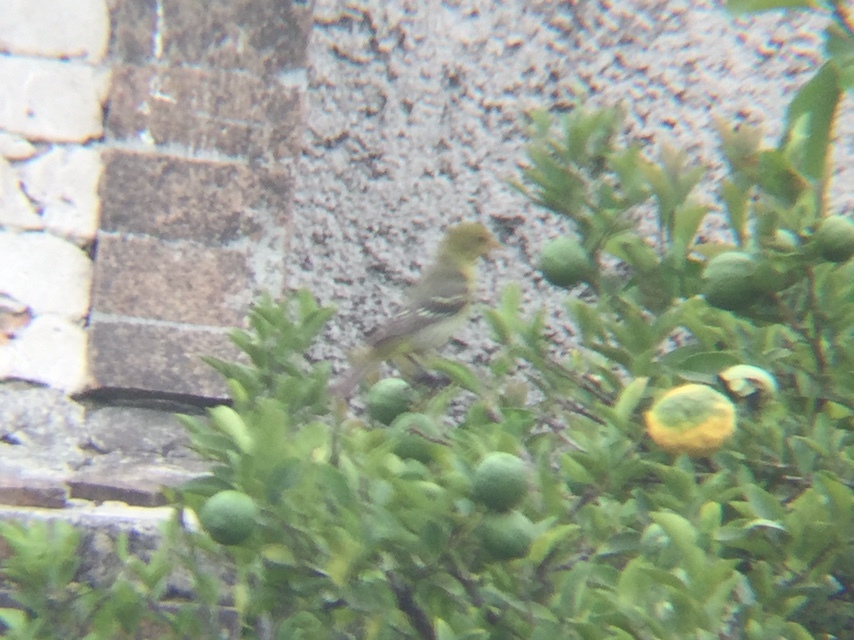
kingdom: Animalia
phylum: Chordata
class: Aves
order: Passeriformes
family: Cardinalidae
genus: Piranga
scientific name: Piranga ludoviciana
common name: Western tanager
